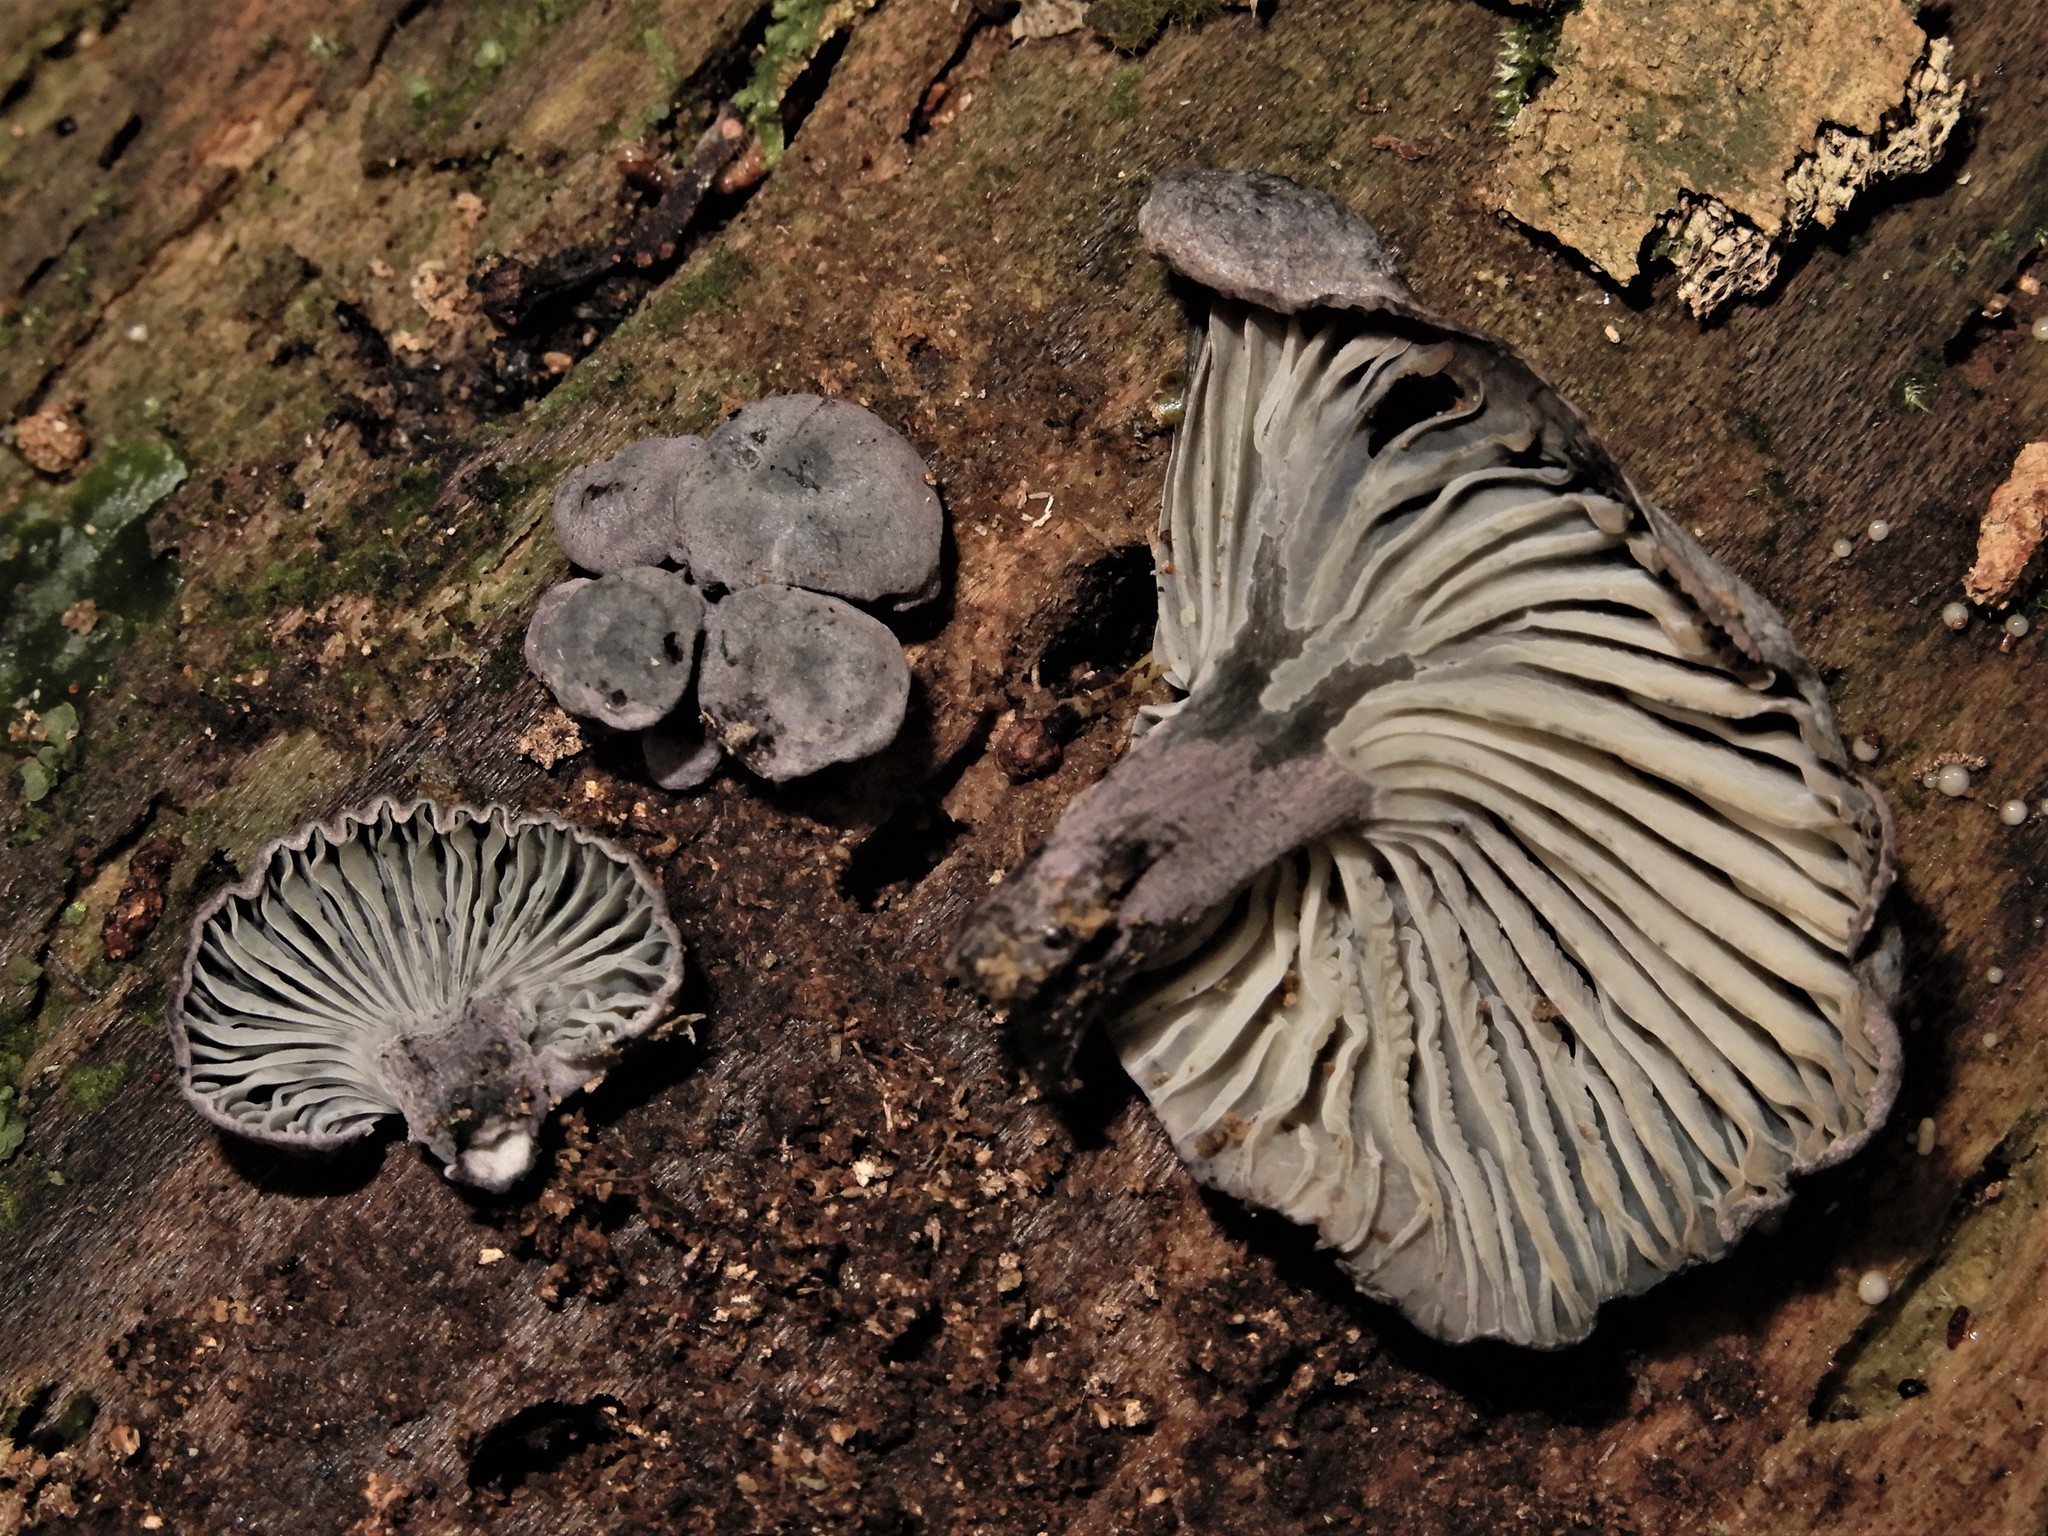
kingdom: Fungi
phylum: Basidiomycota
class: Agaricomycetes
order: Agaricales
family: Marasmiaceae
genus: Gerronema
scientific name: Gerronema waikanaense
